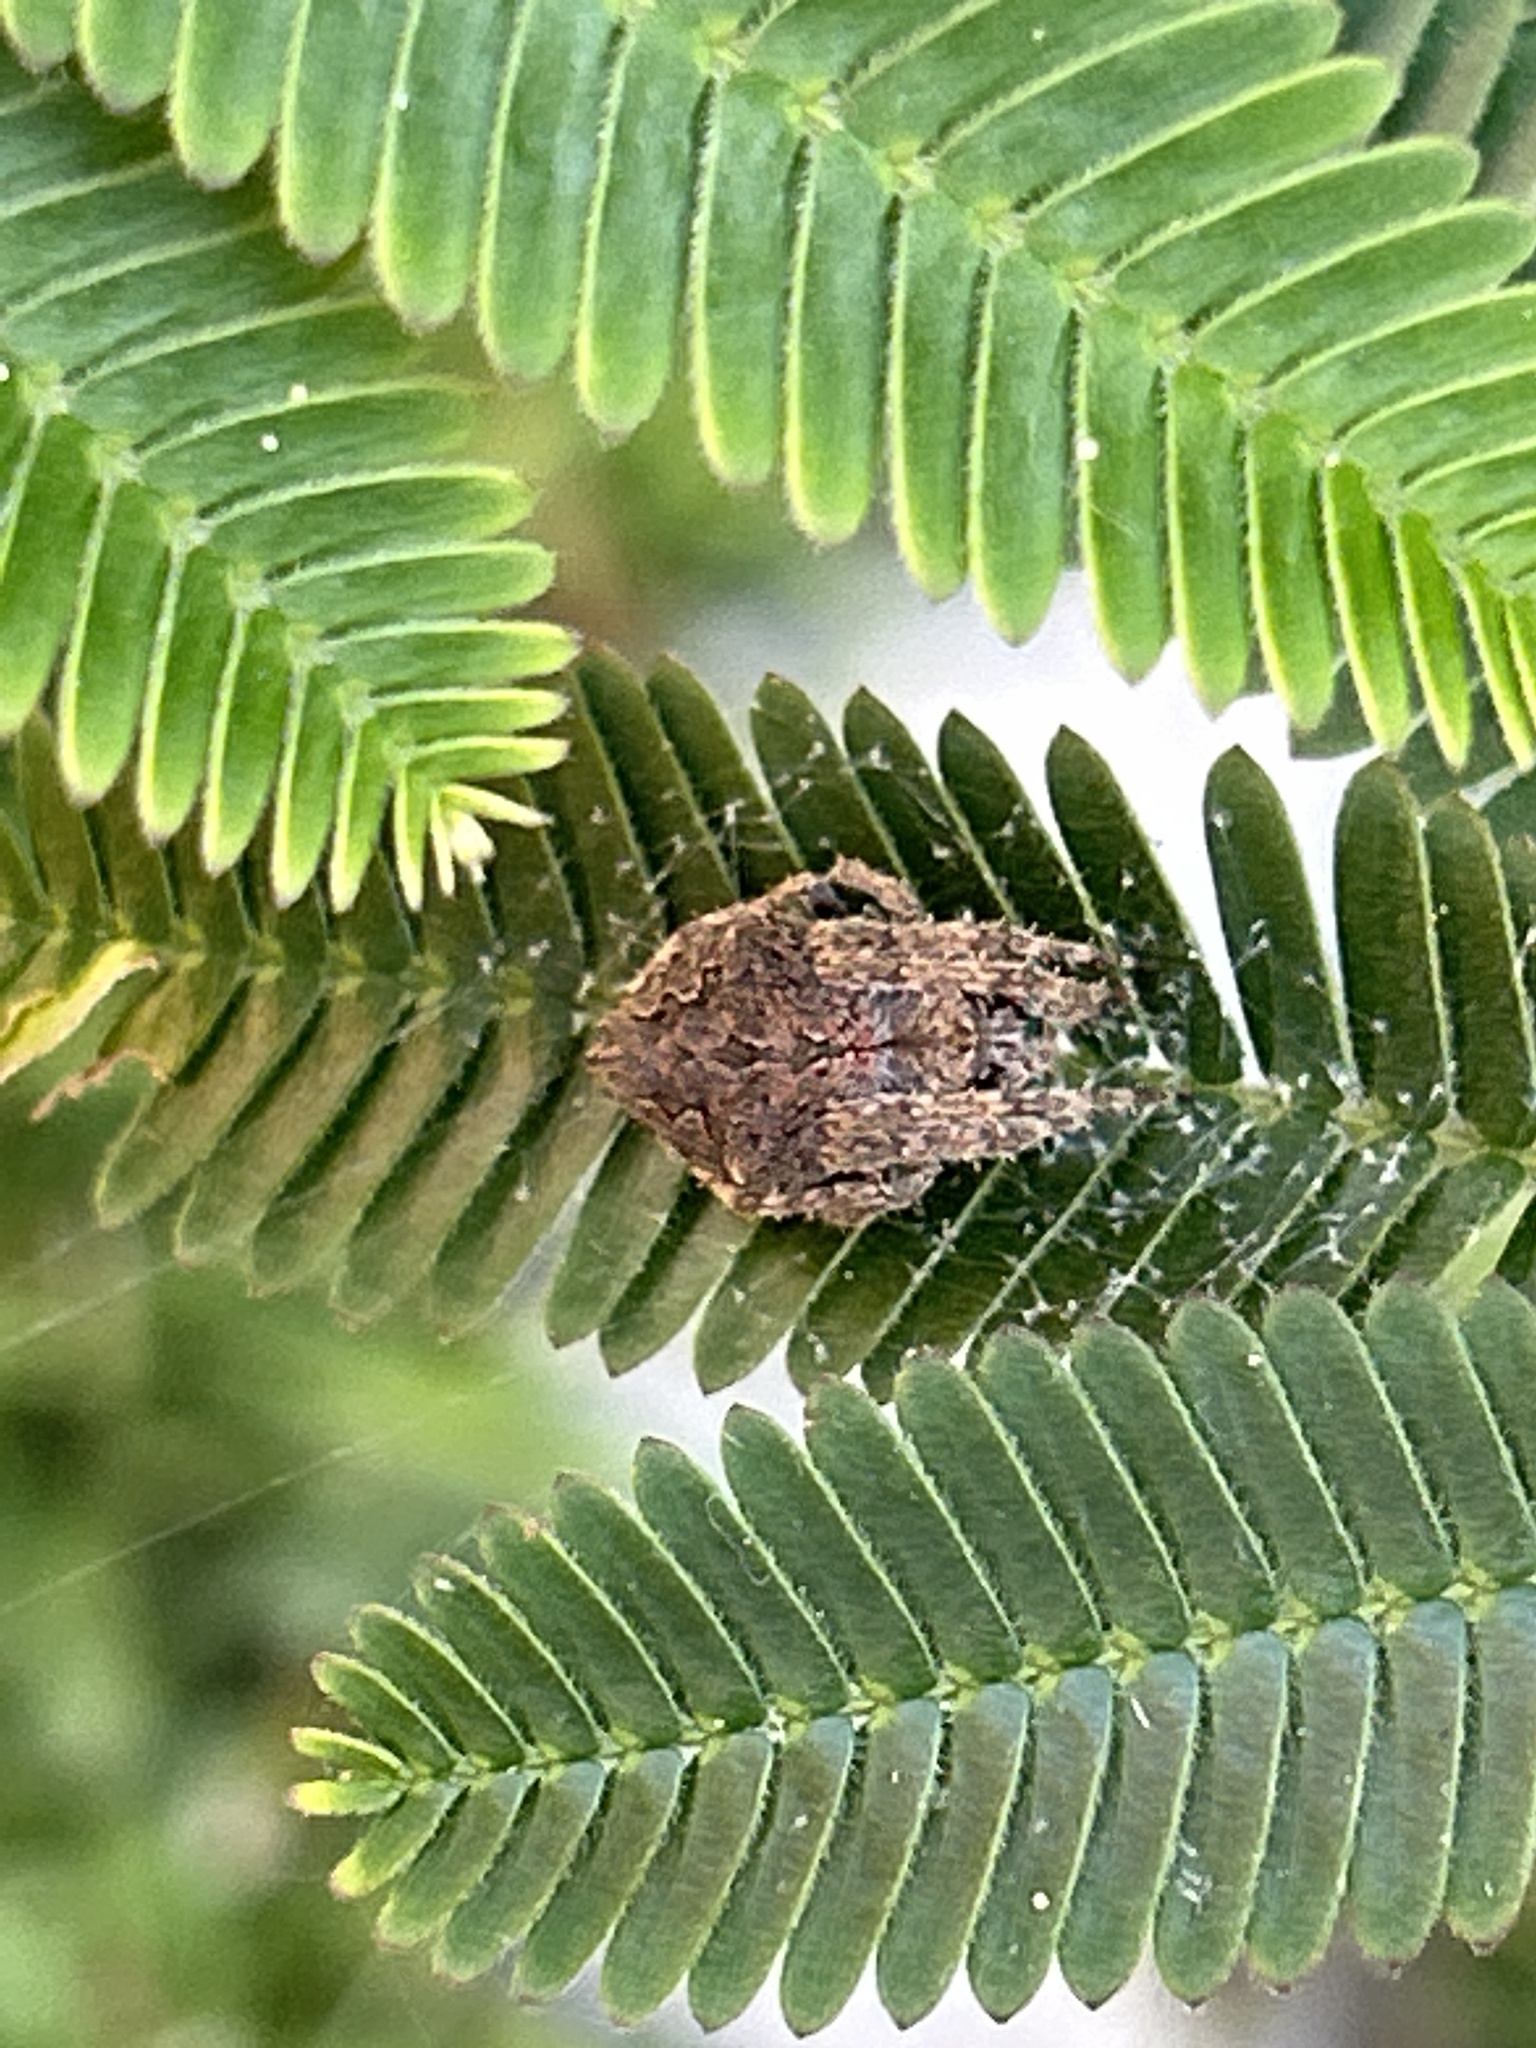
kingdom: Animalia
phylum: Arthropoda
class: Arachnida
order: Araneae
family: Araneidae
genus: Eriophora
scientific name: Eriophora pustulosa
